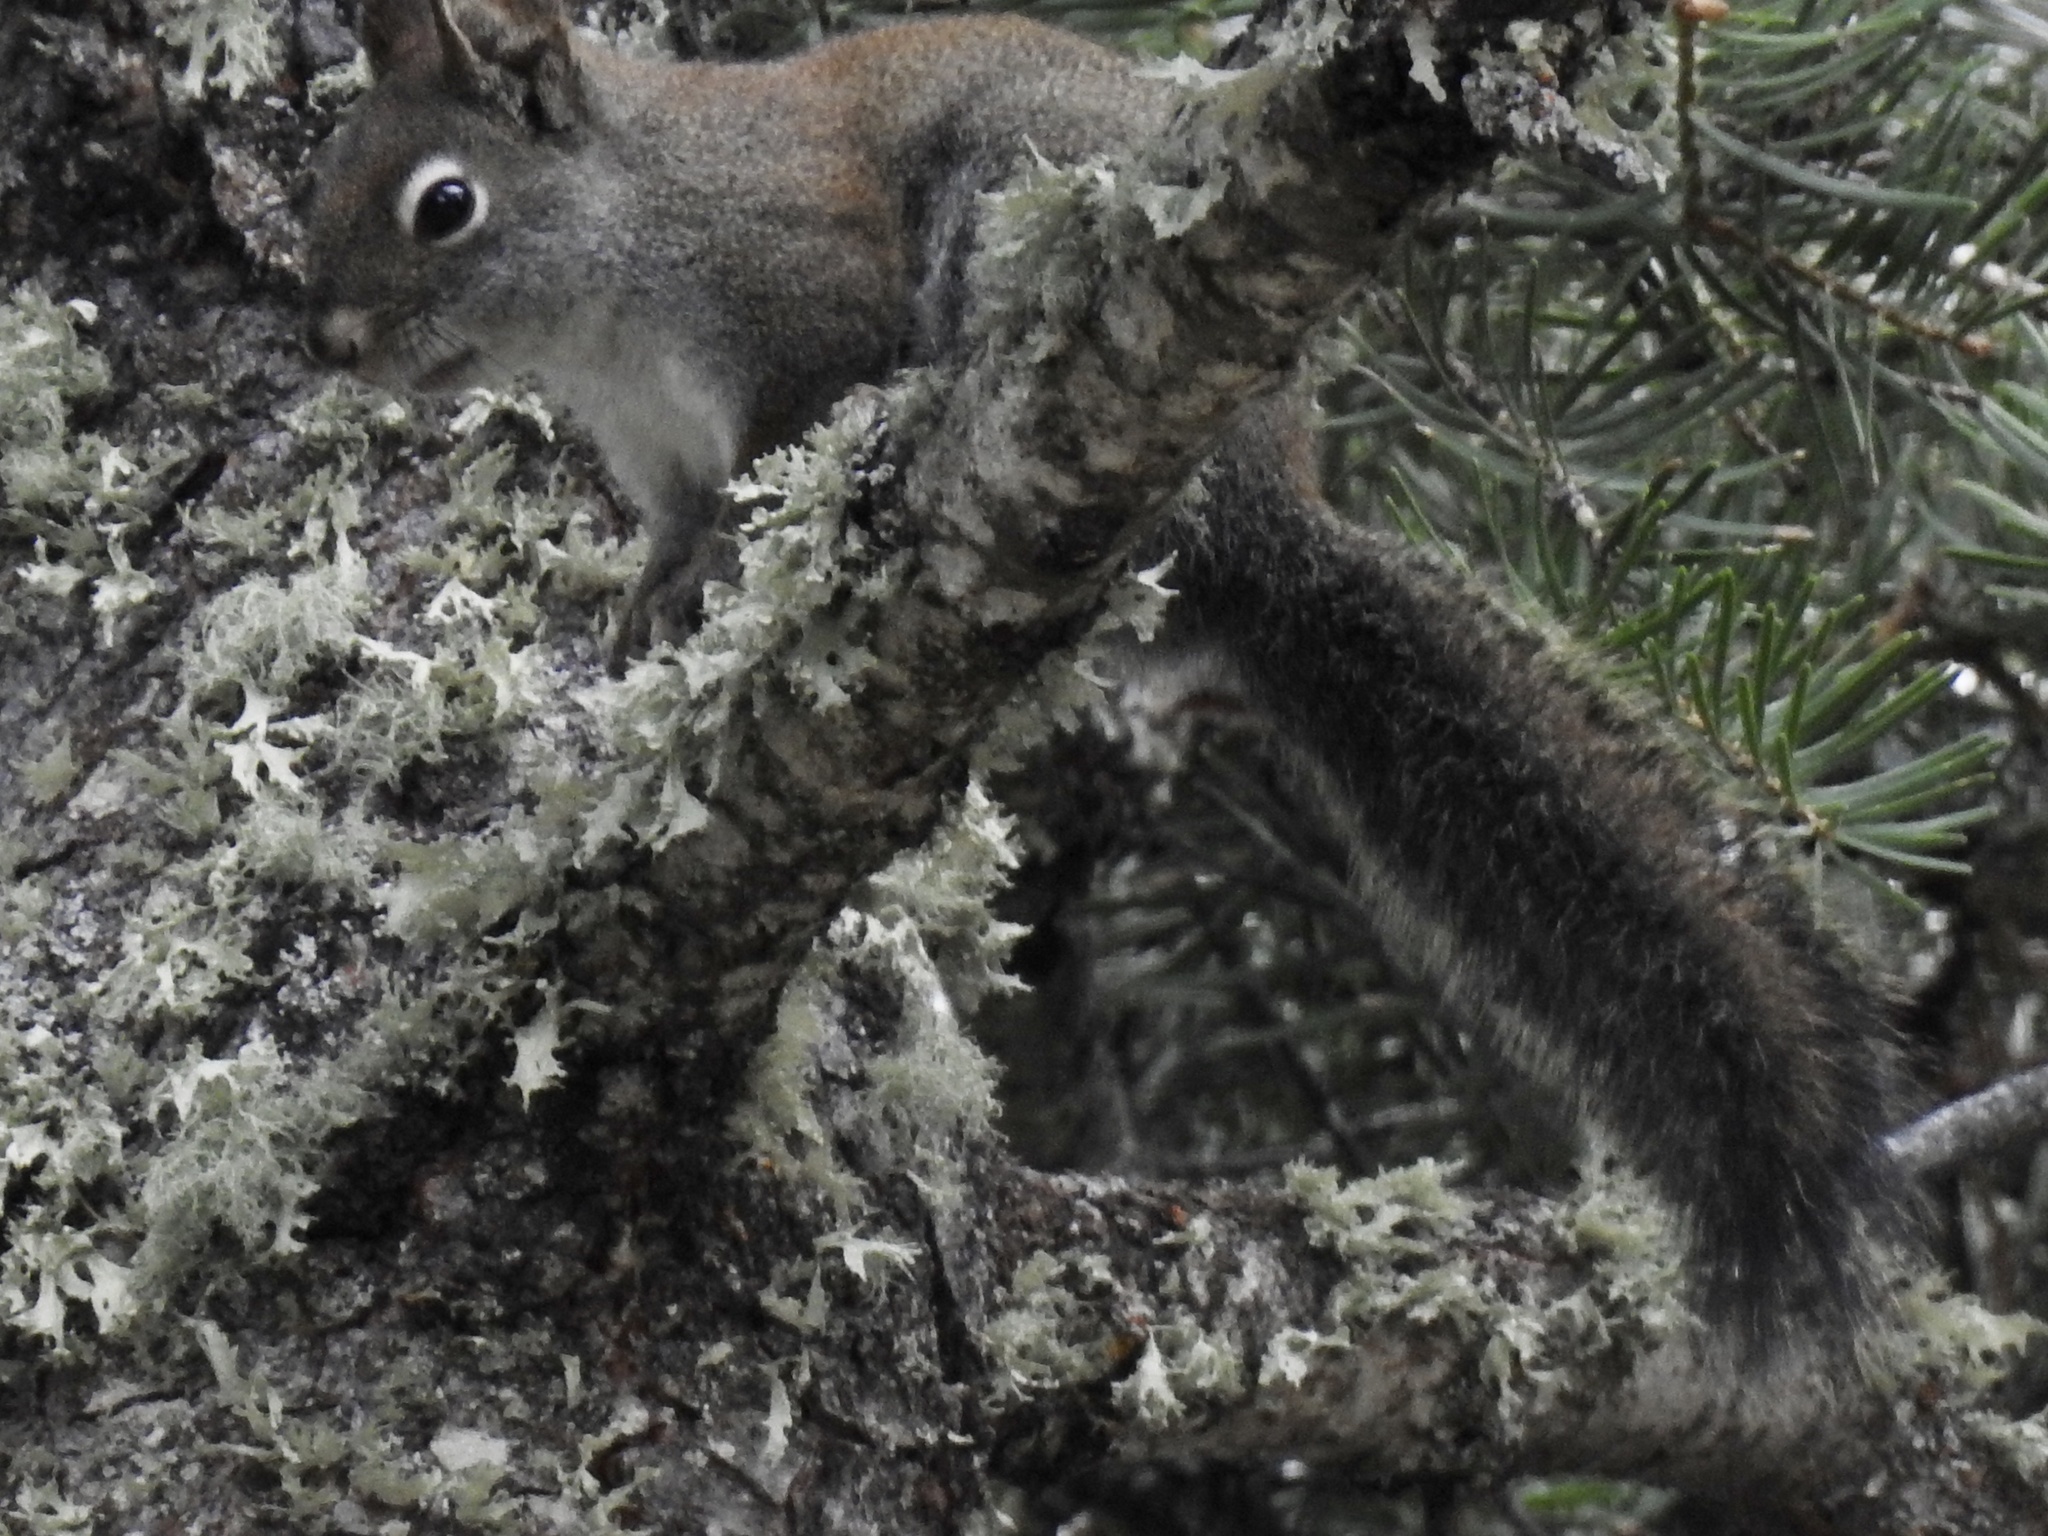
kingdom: Animalia
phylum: Chordata
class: Mammalia
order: Rodentia
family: Sciuridae
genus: Tamiasciurus
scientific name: Tamiasciurus hudsonicus
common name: Red squirrel
